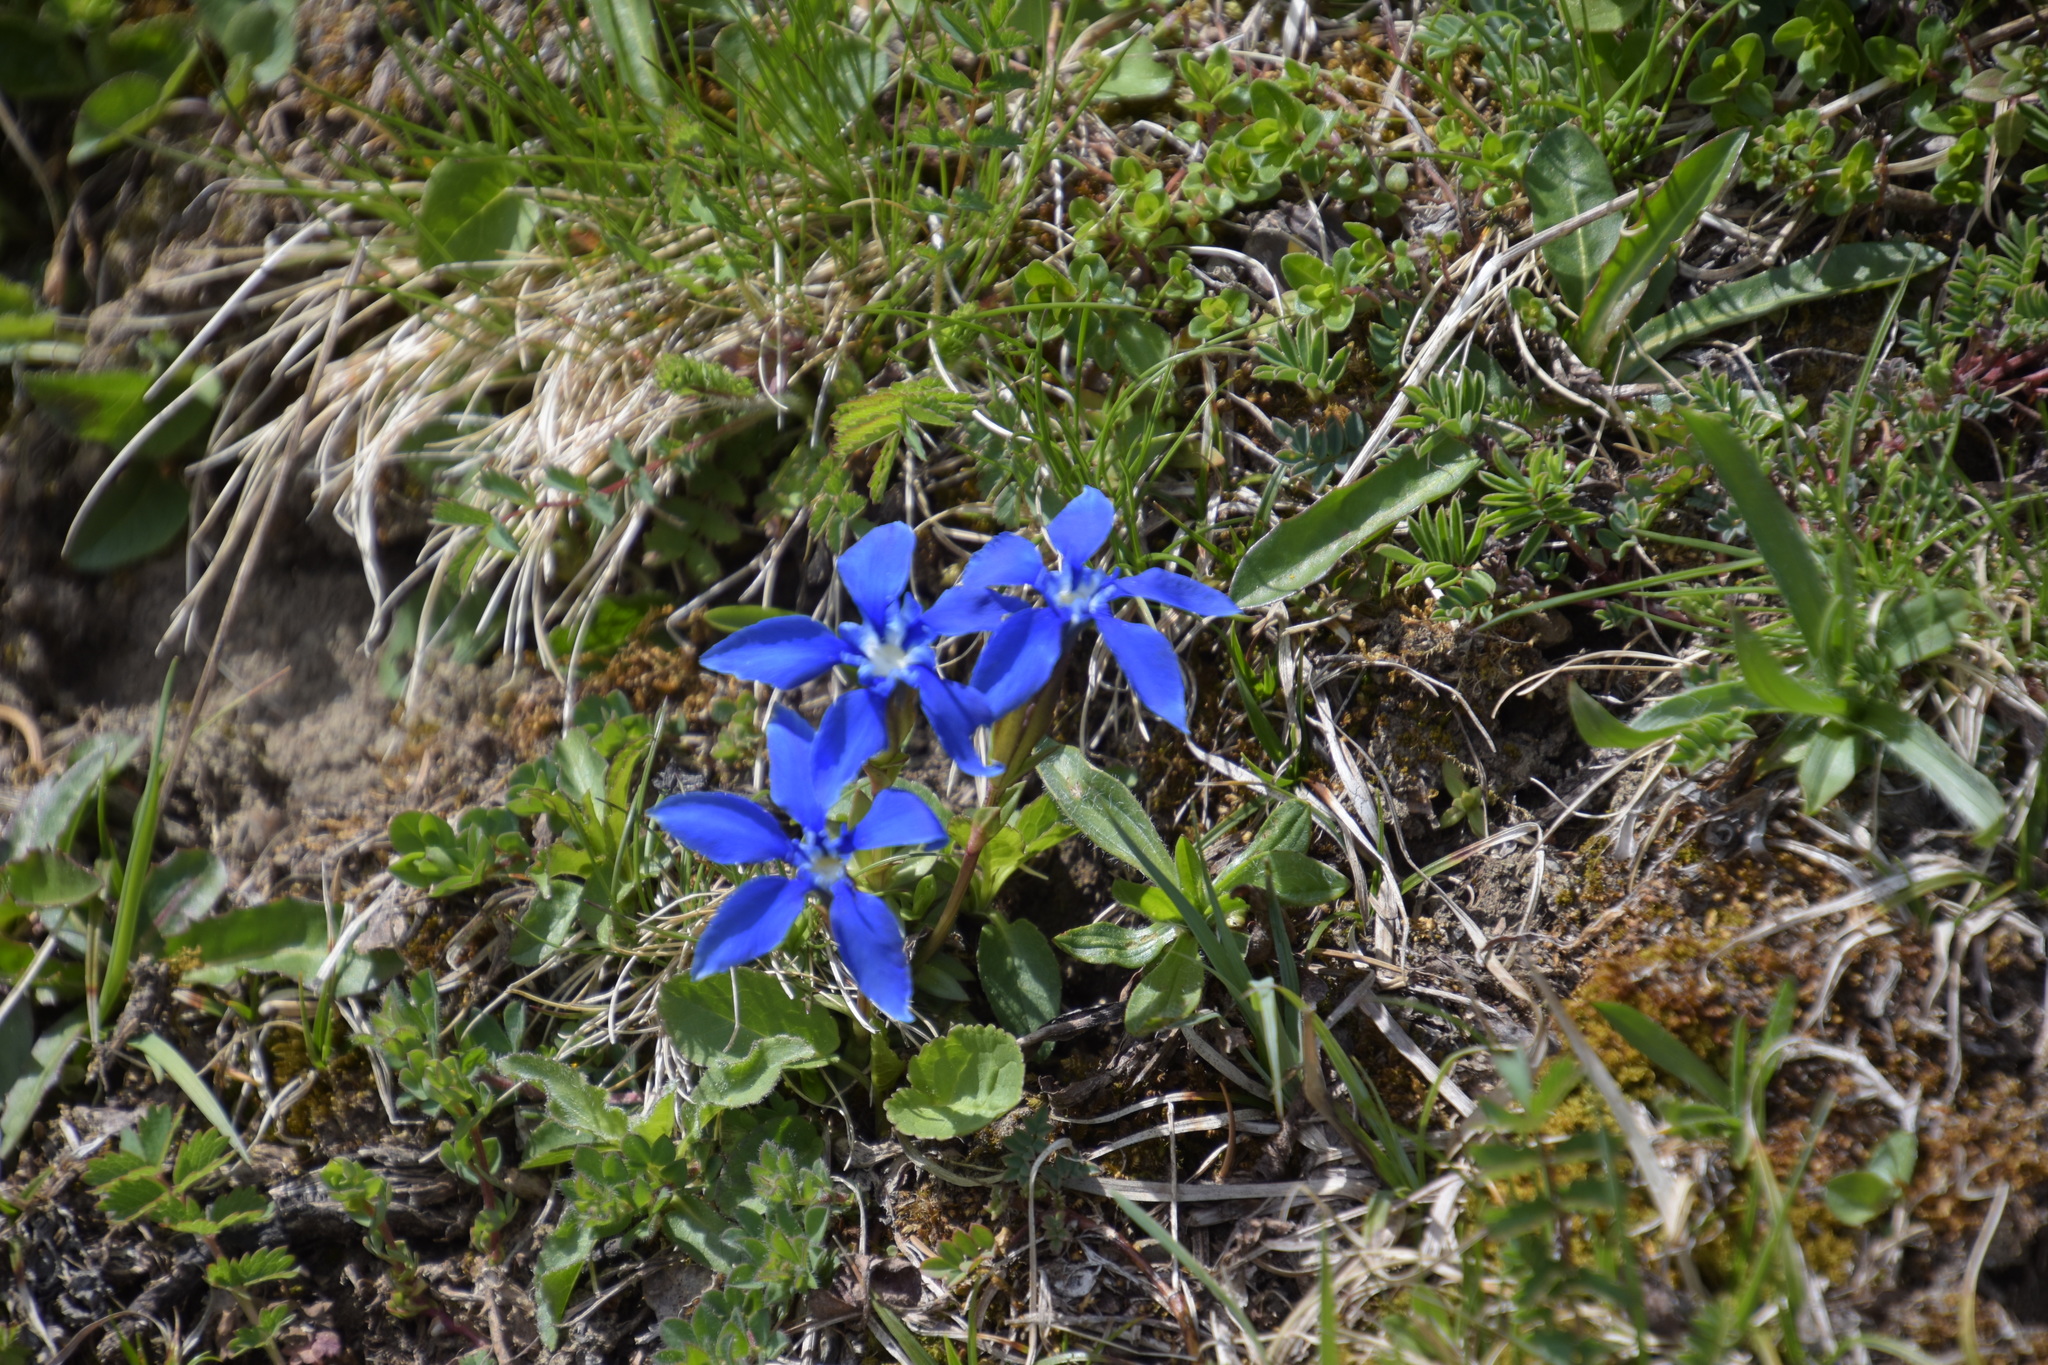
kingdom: Plantae
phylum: Tracheophyta
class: Magnoliopsida
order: Gentianales
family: Gentianaceae
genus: Gentiana
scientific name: Gentiana verna
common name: Spring gentian
